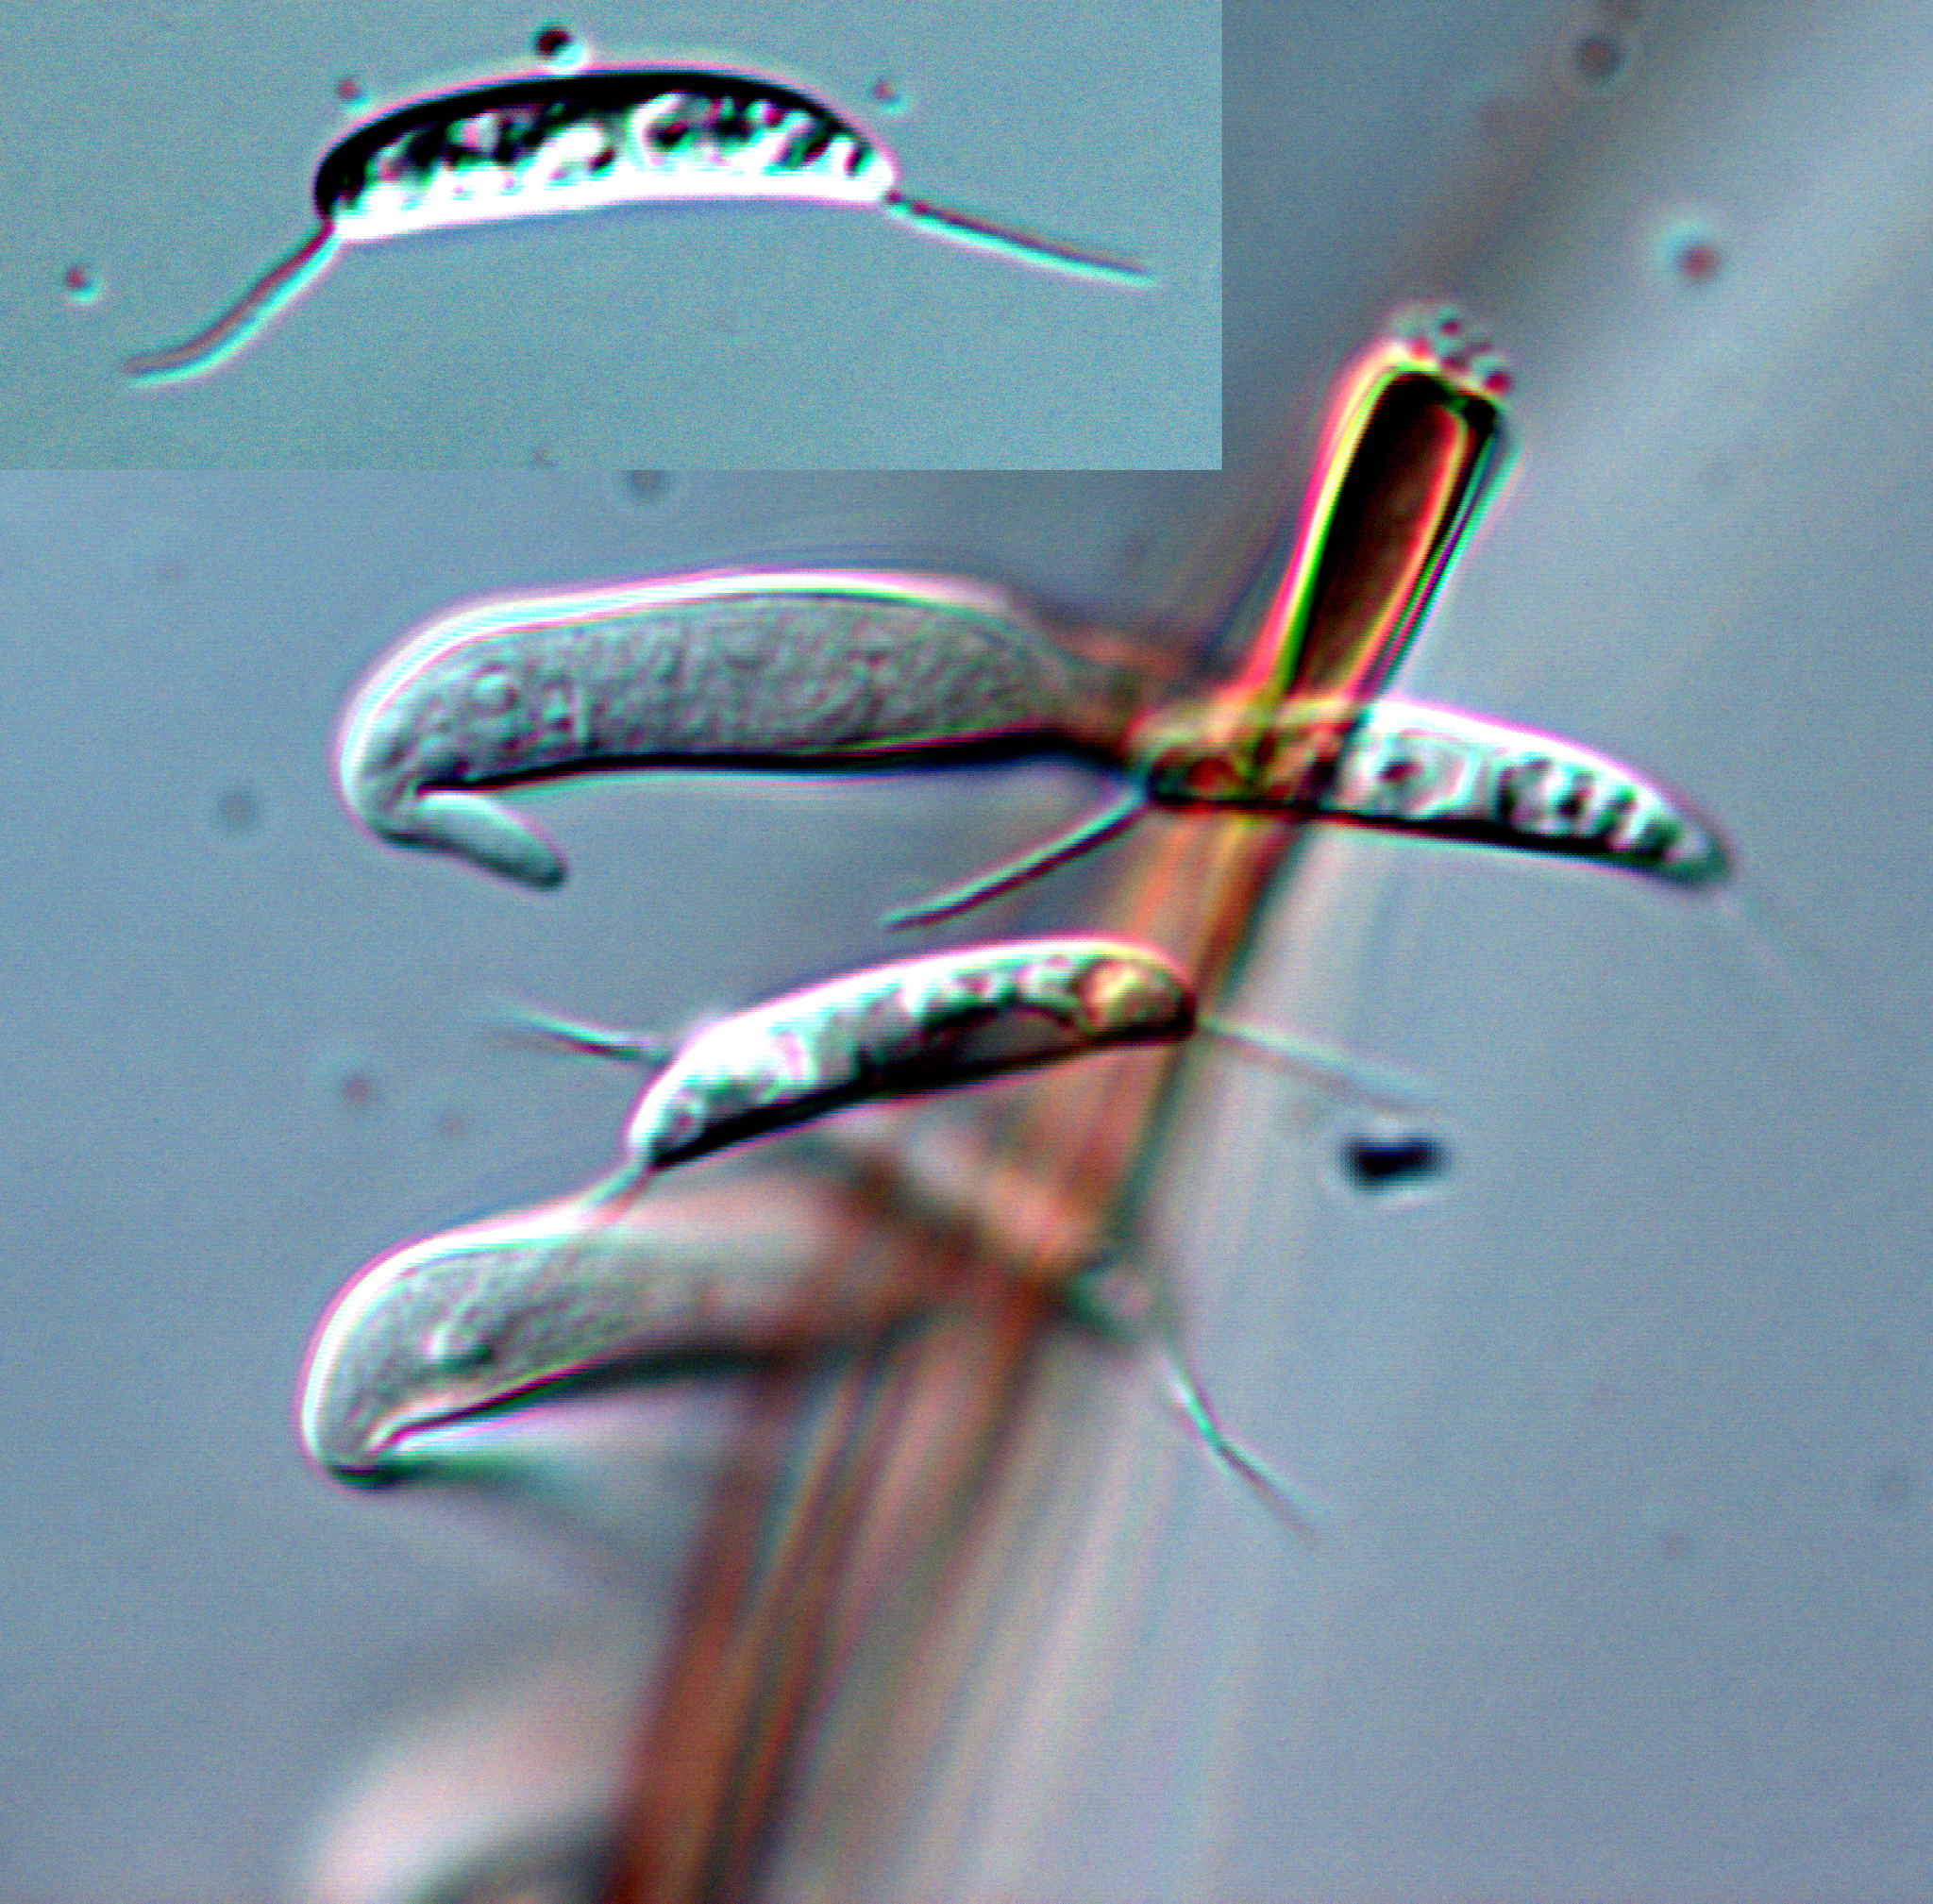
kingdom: Fungi
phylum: Ascomycota
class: Sordariomycetes
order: Chaetosphaeriales
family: Chaetosphaeriaceae
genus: Menispora
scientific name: Menispora ciliata
